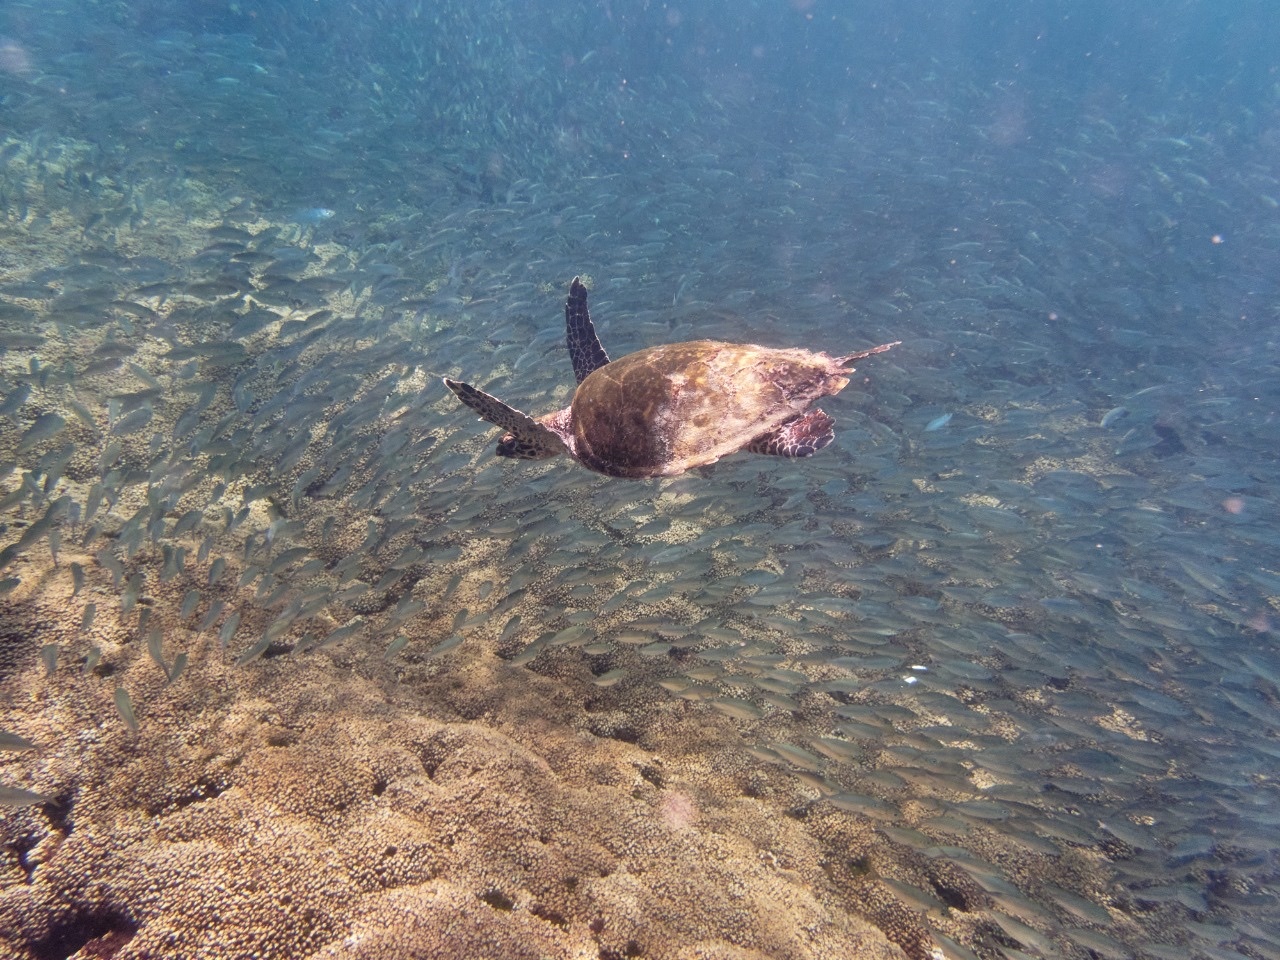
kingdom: Animalia
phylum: Chordata
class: Testudines
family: Cheloniidae
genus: Eretmochelys
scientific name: Eretmochelys imbricata
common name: Hawksbill turtle
